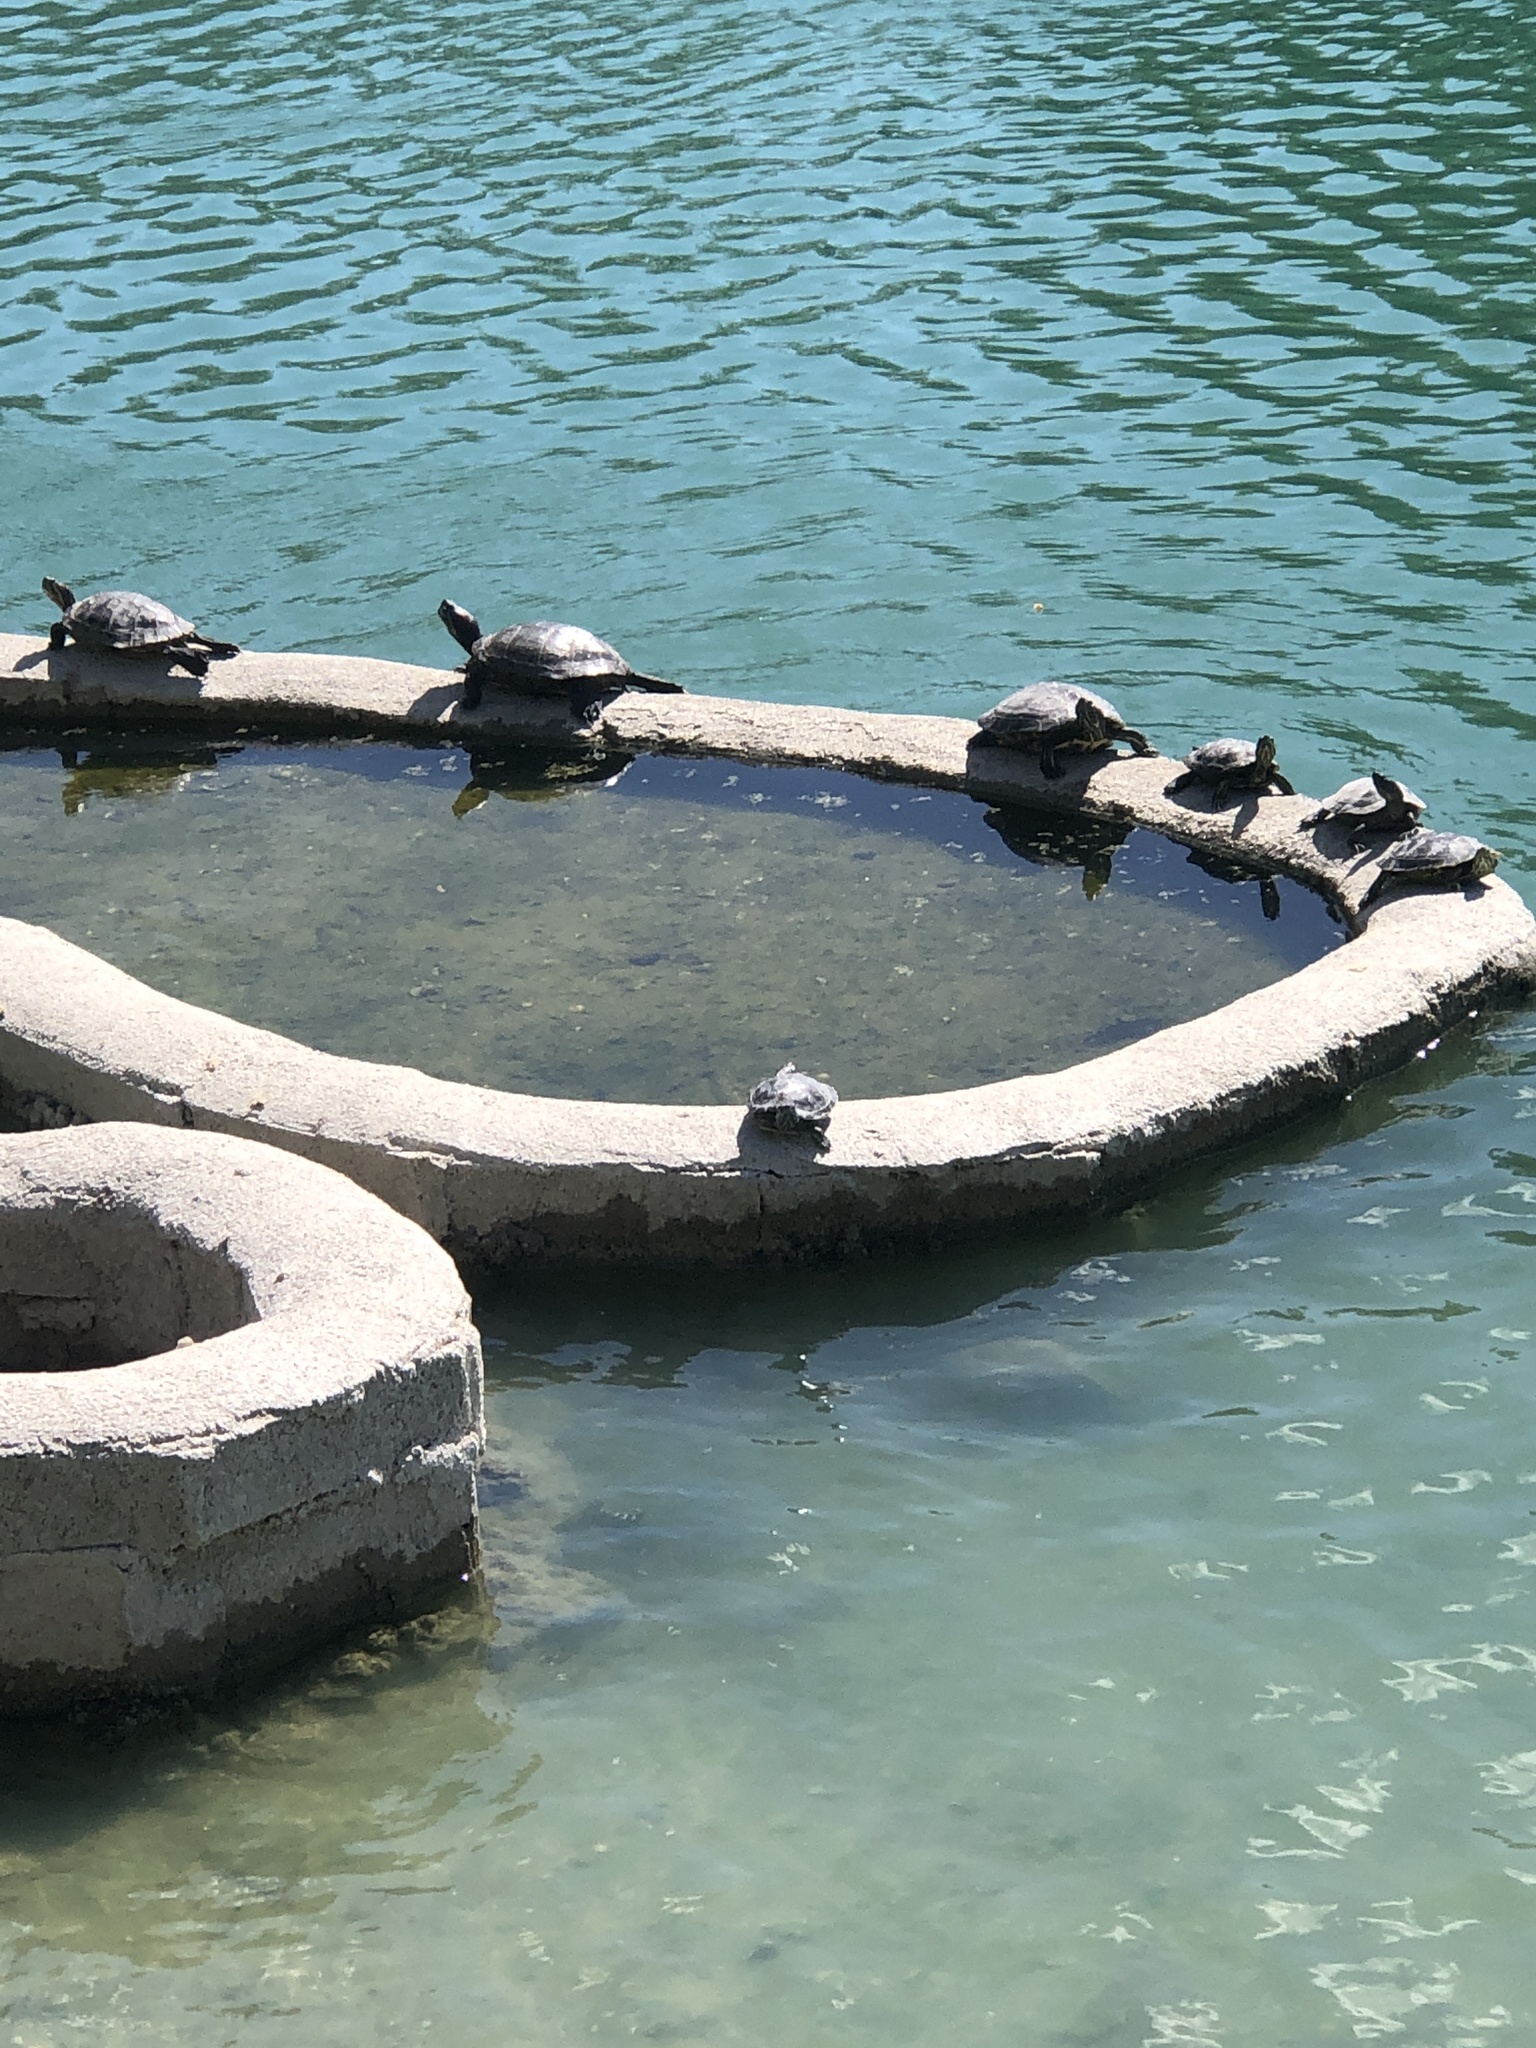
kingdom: Animalia
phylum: Chordata
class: Testudines
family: Emydidae
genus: Trachemys
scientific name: Trachemys scripta
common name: Slider
